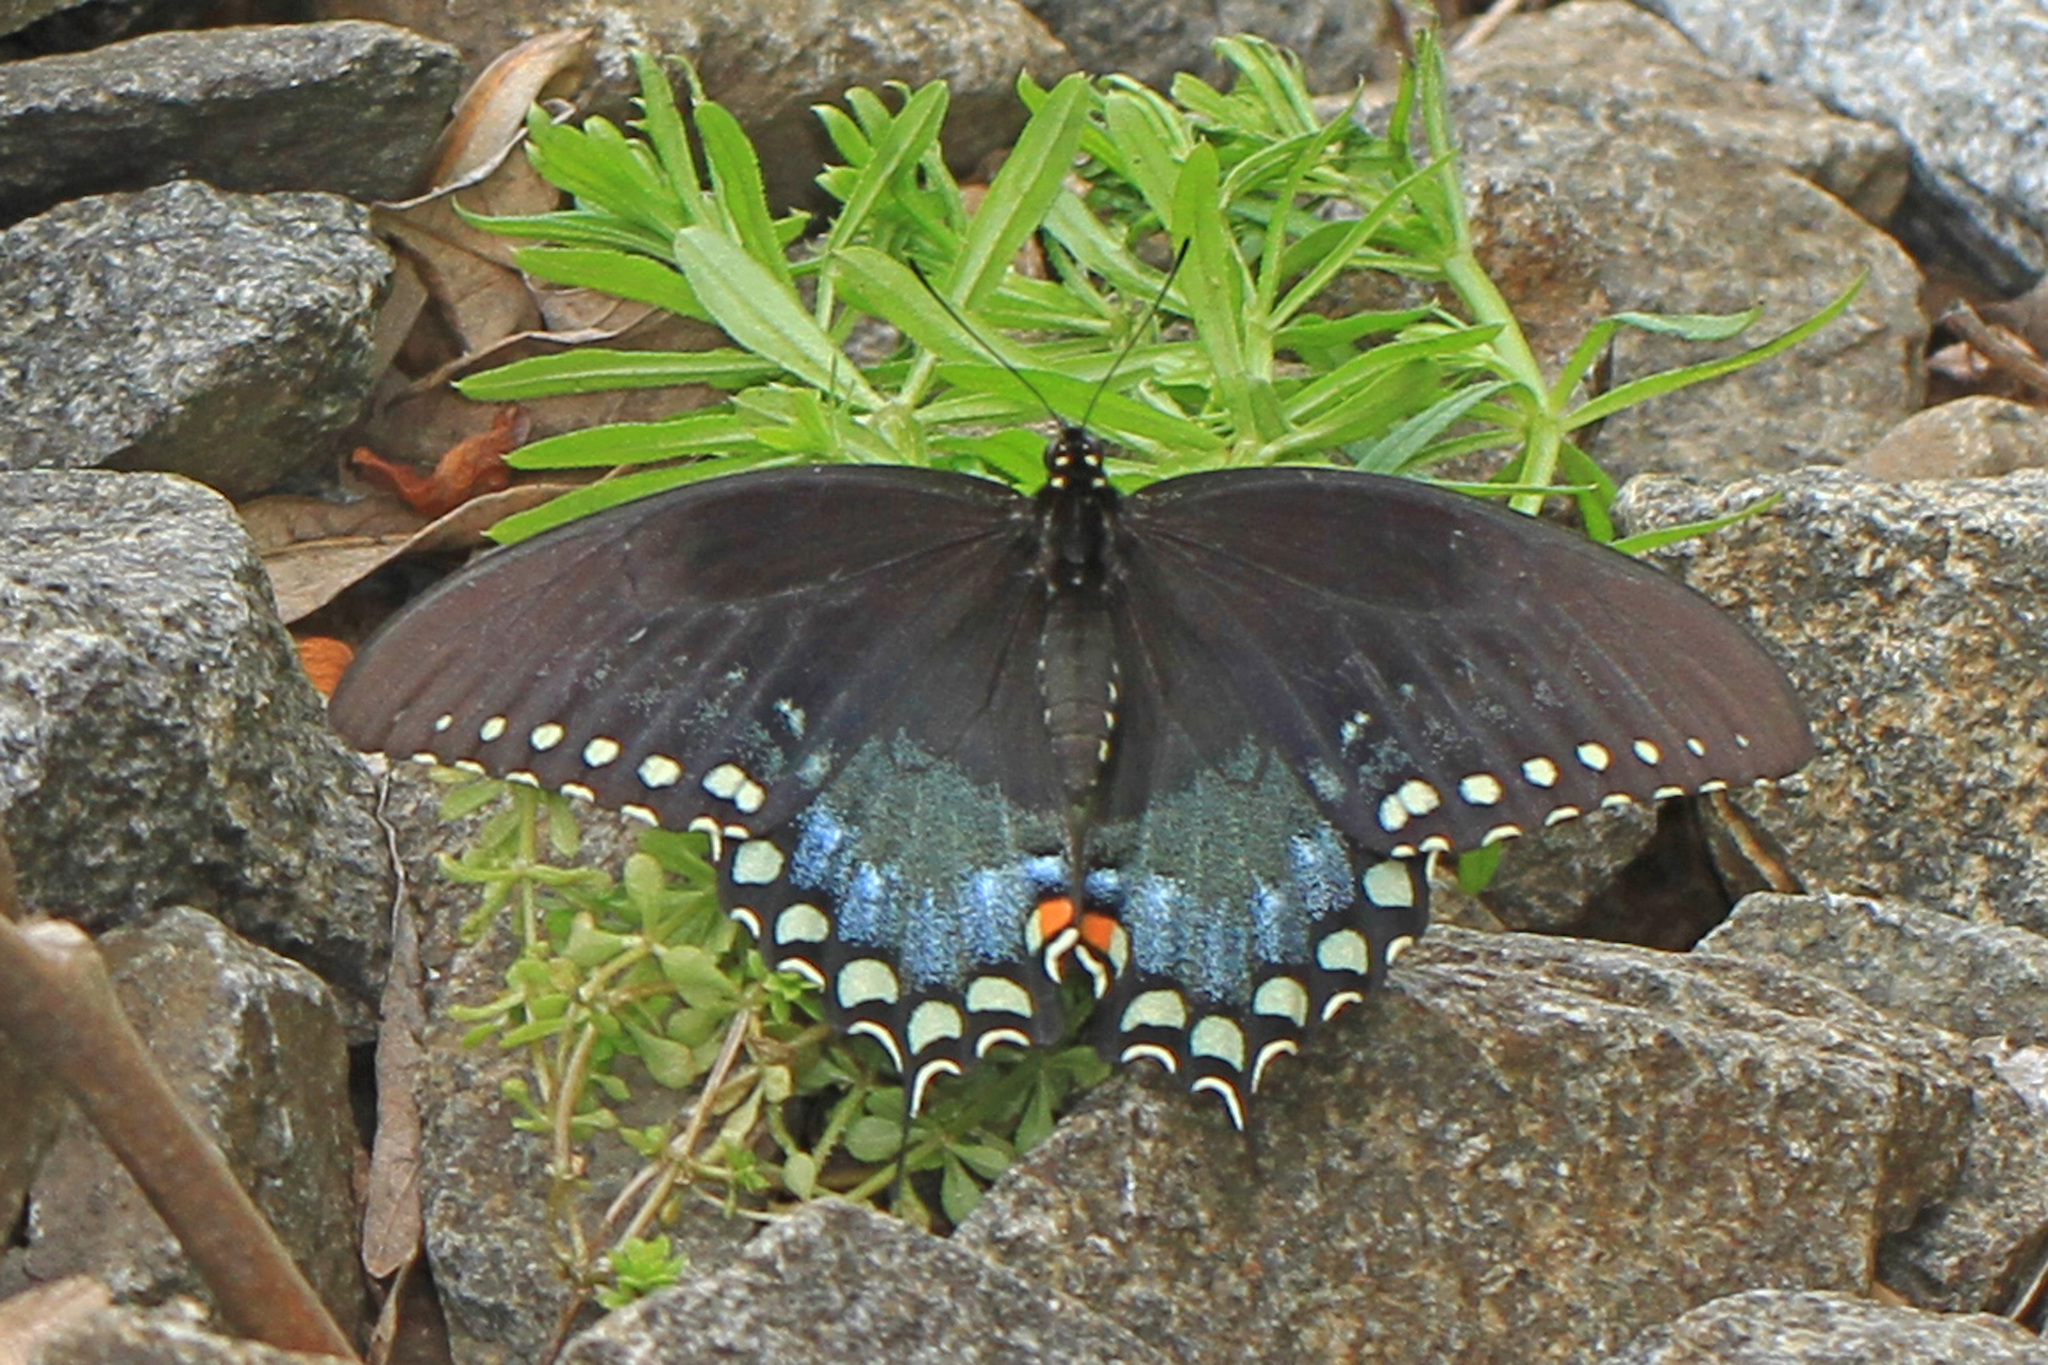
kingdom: Animalia
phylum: Arthropoda
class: Insecta
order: Lepidoptera
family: Papilionidae
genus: Papilio
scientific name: Papilio troilus
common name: Spicebush swallowtail
